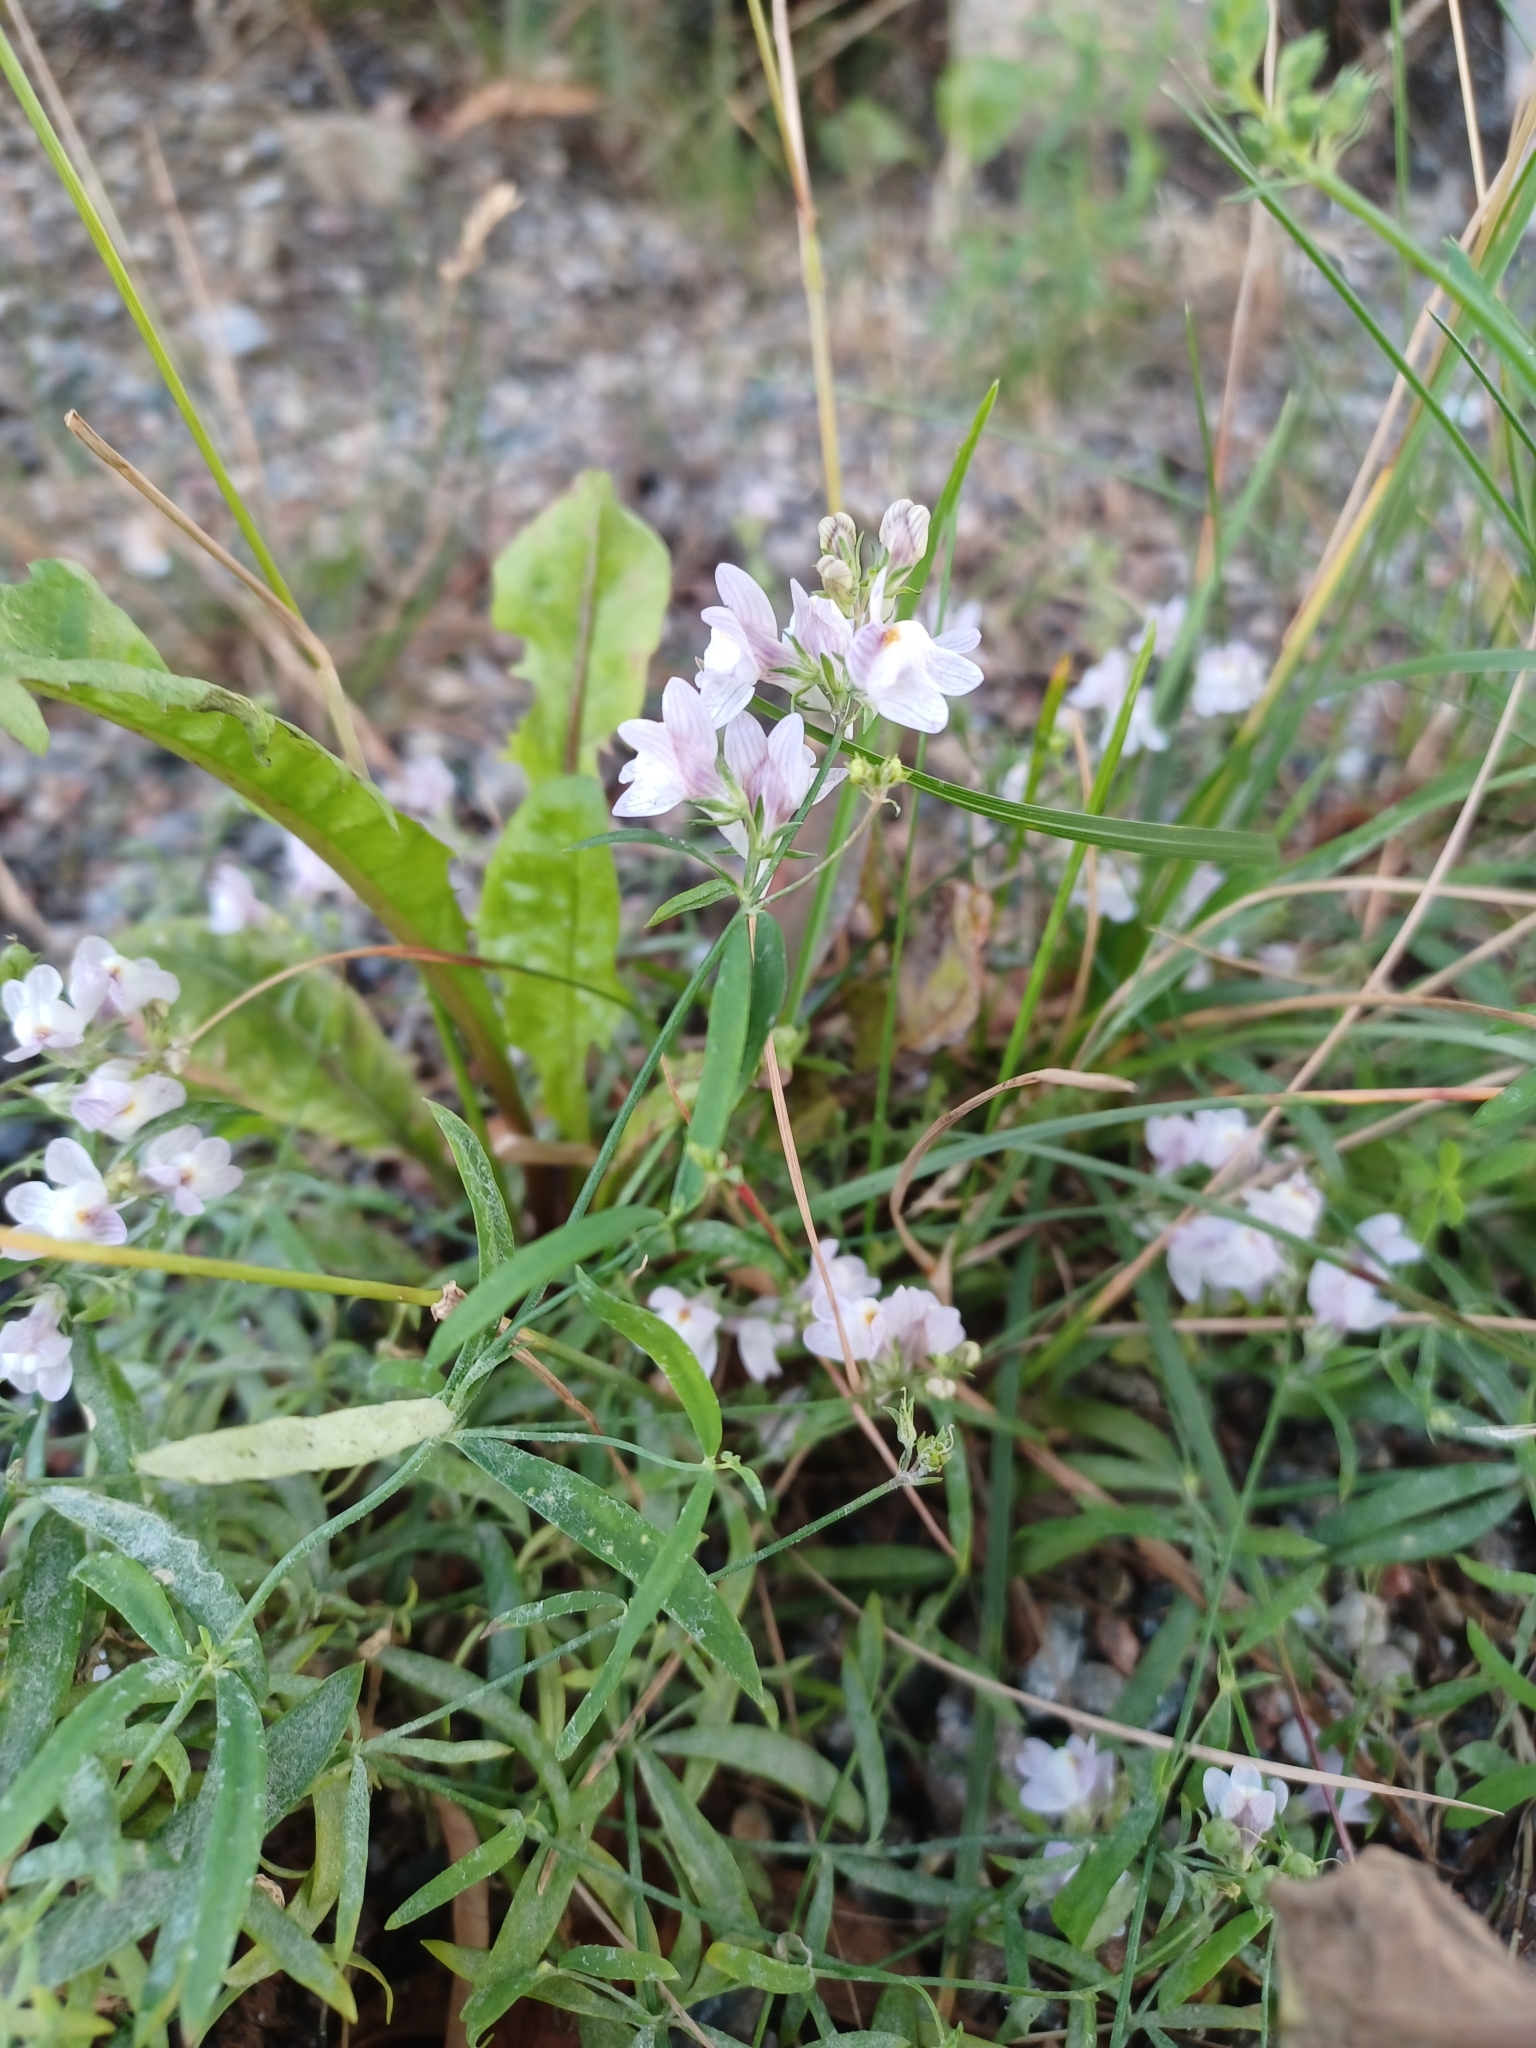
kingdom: Plantae
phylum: Tracheophyta
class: Magnoliopsida
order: Lamiales
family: Plantaginaceae
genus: Linaria
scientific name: Linaria repens
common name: Pale toadflax
